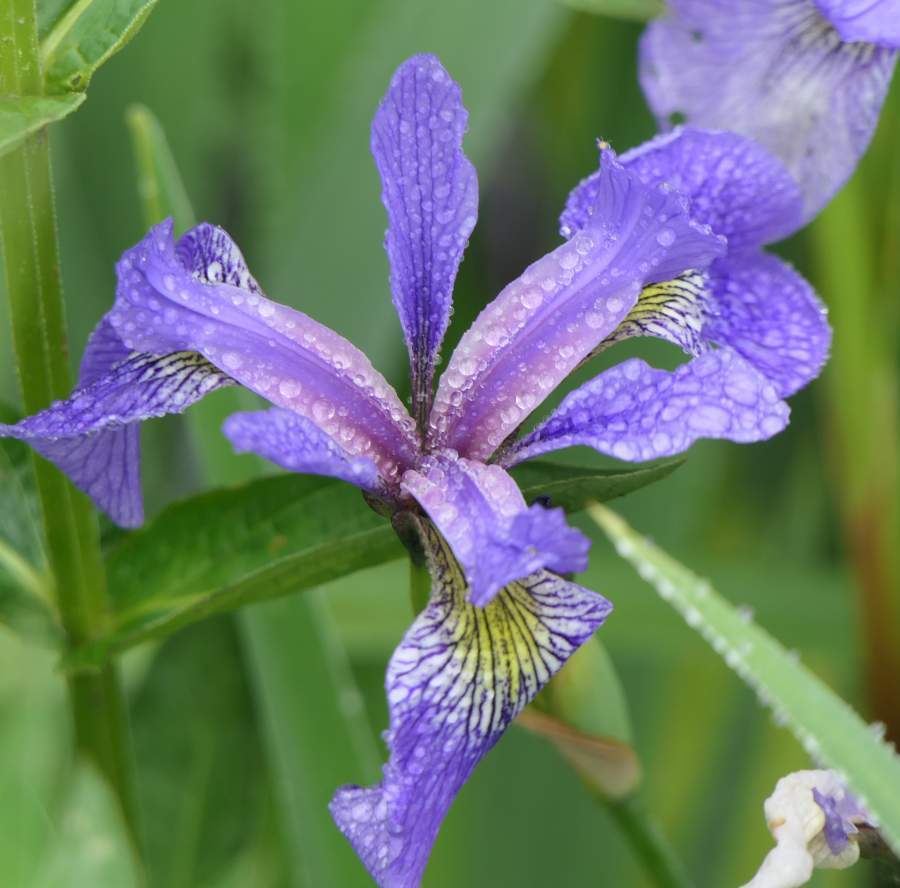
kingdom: Plantae
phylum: Tracheophyta
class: Liliopsida
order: Asparagales
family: Iridaceae
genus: Iris
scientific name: Iris versicolor
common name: Purple iris
